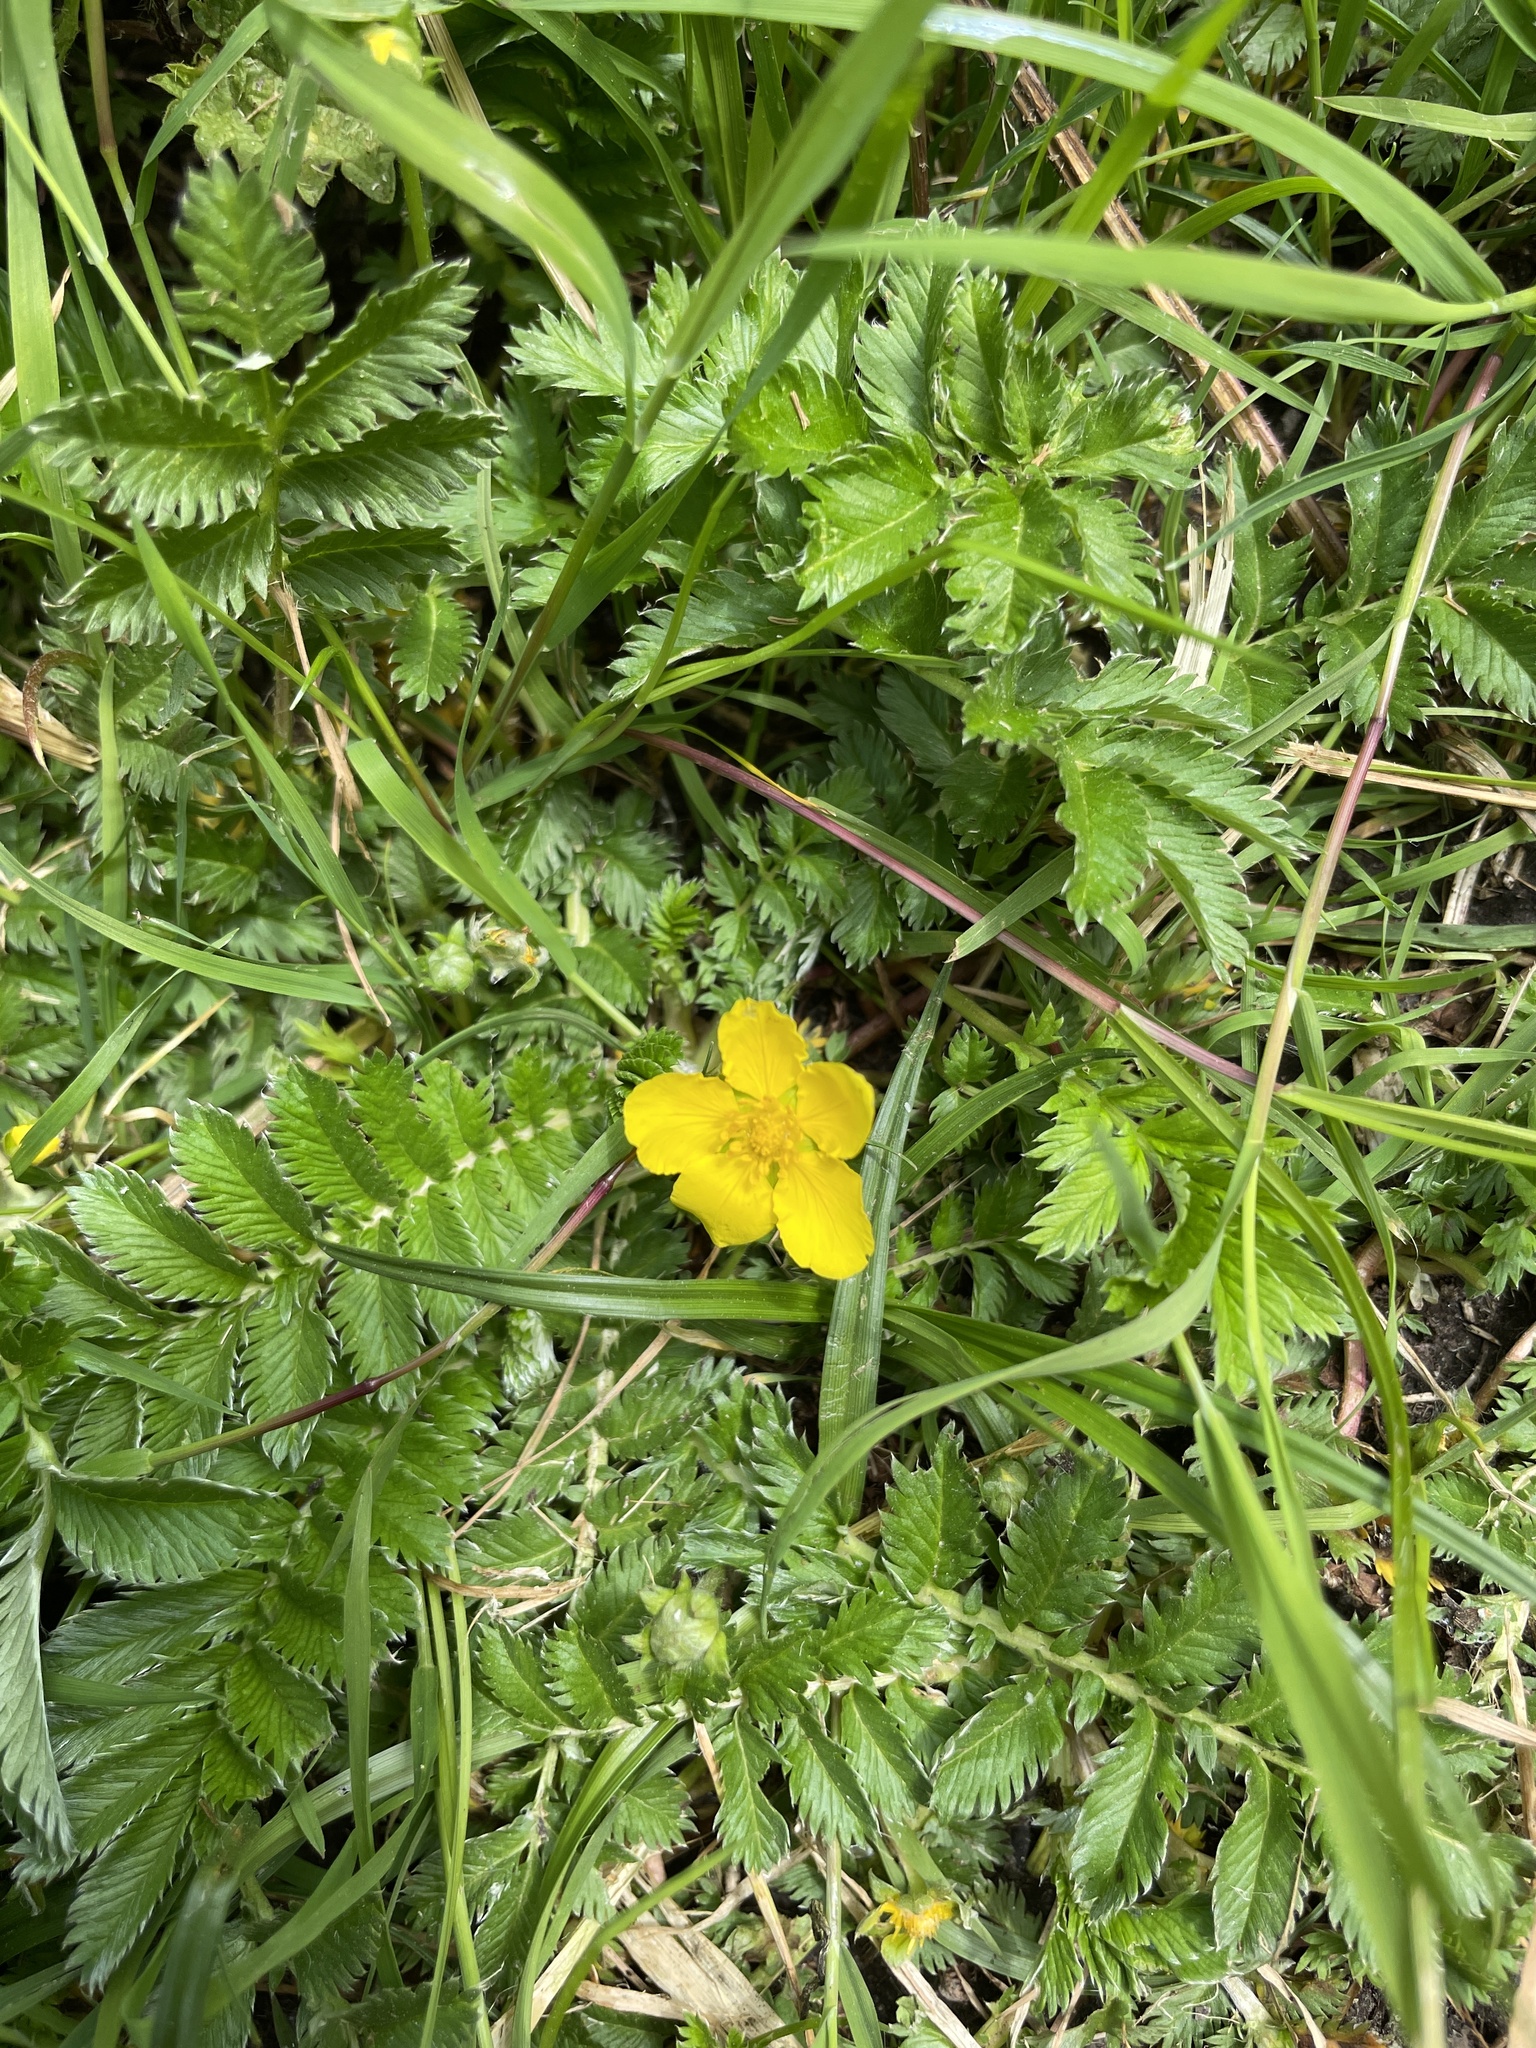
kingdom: Plantae
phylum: Tracheophyta
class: Magnoliopsida
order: Rosales
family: Rosaceae
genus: Argentina
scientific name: Argentina anserina
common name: Common silverweed
